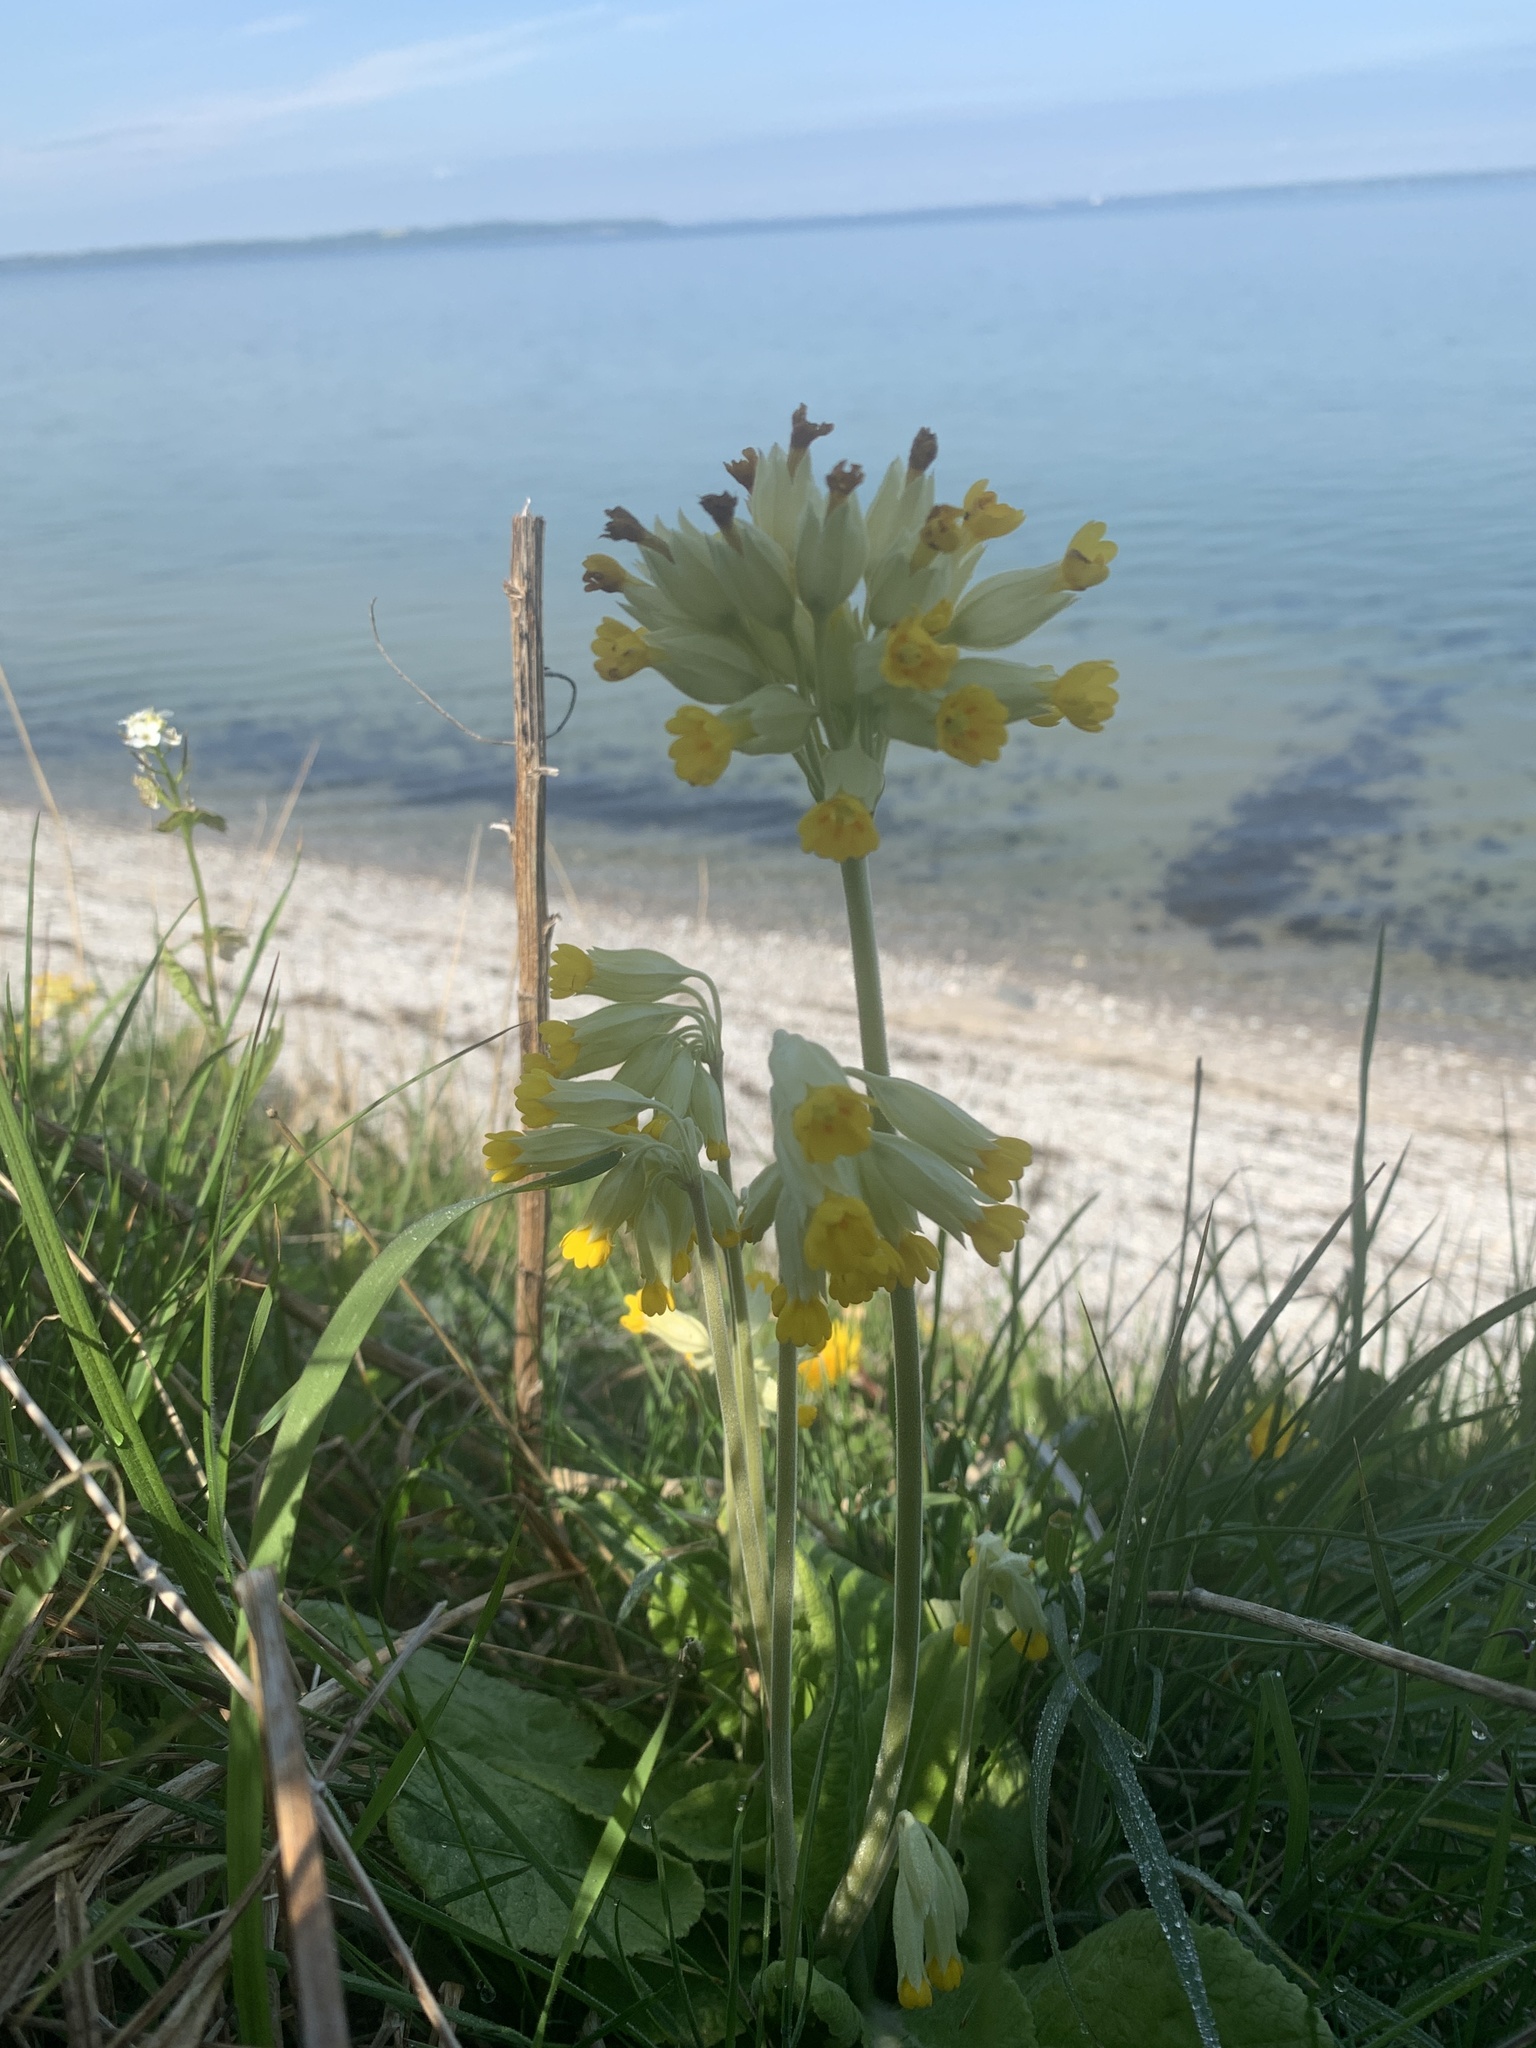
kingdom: Plantae
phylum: Tracheophyta
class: Magnoliopsida
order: Ericales
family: Primulaceae
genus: Primula
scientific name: Primula veris
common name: Cowslip
